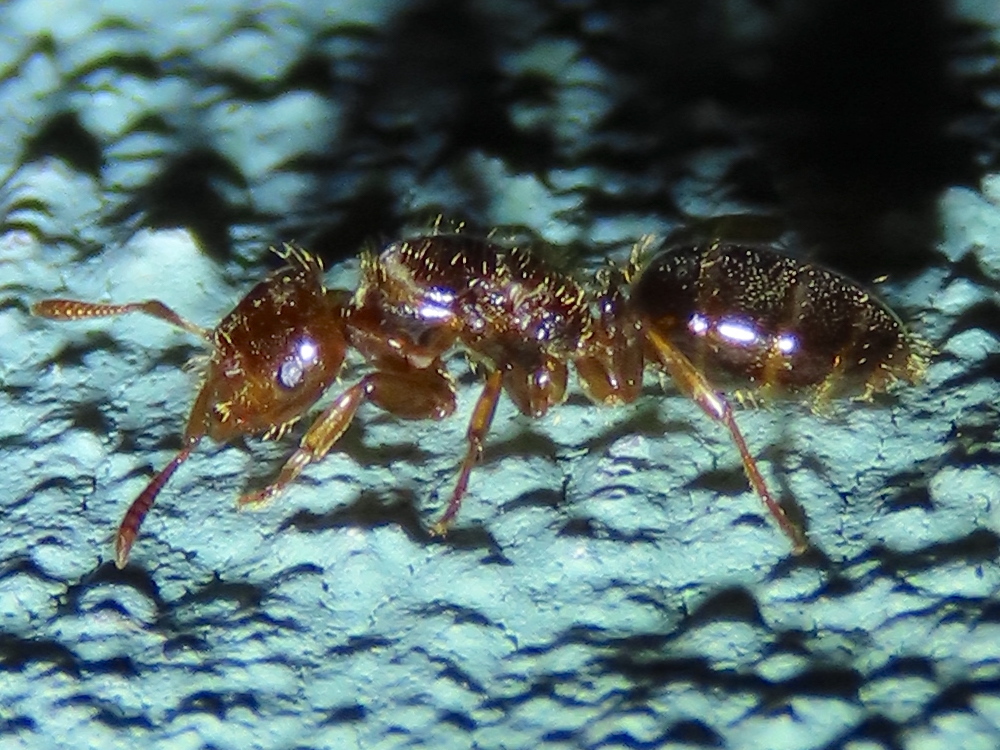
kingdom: Animalia
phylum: Arthropoda
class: Insecta
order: Hymenoptera
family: Formicidae
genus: Lasius
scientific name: Lasius claviger
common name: Common citronella ant
